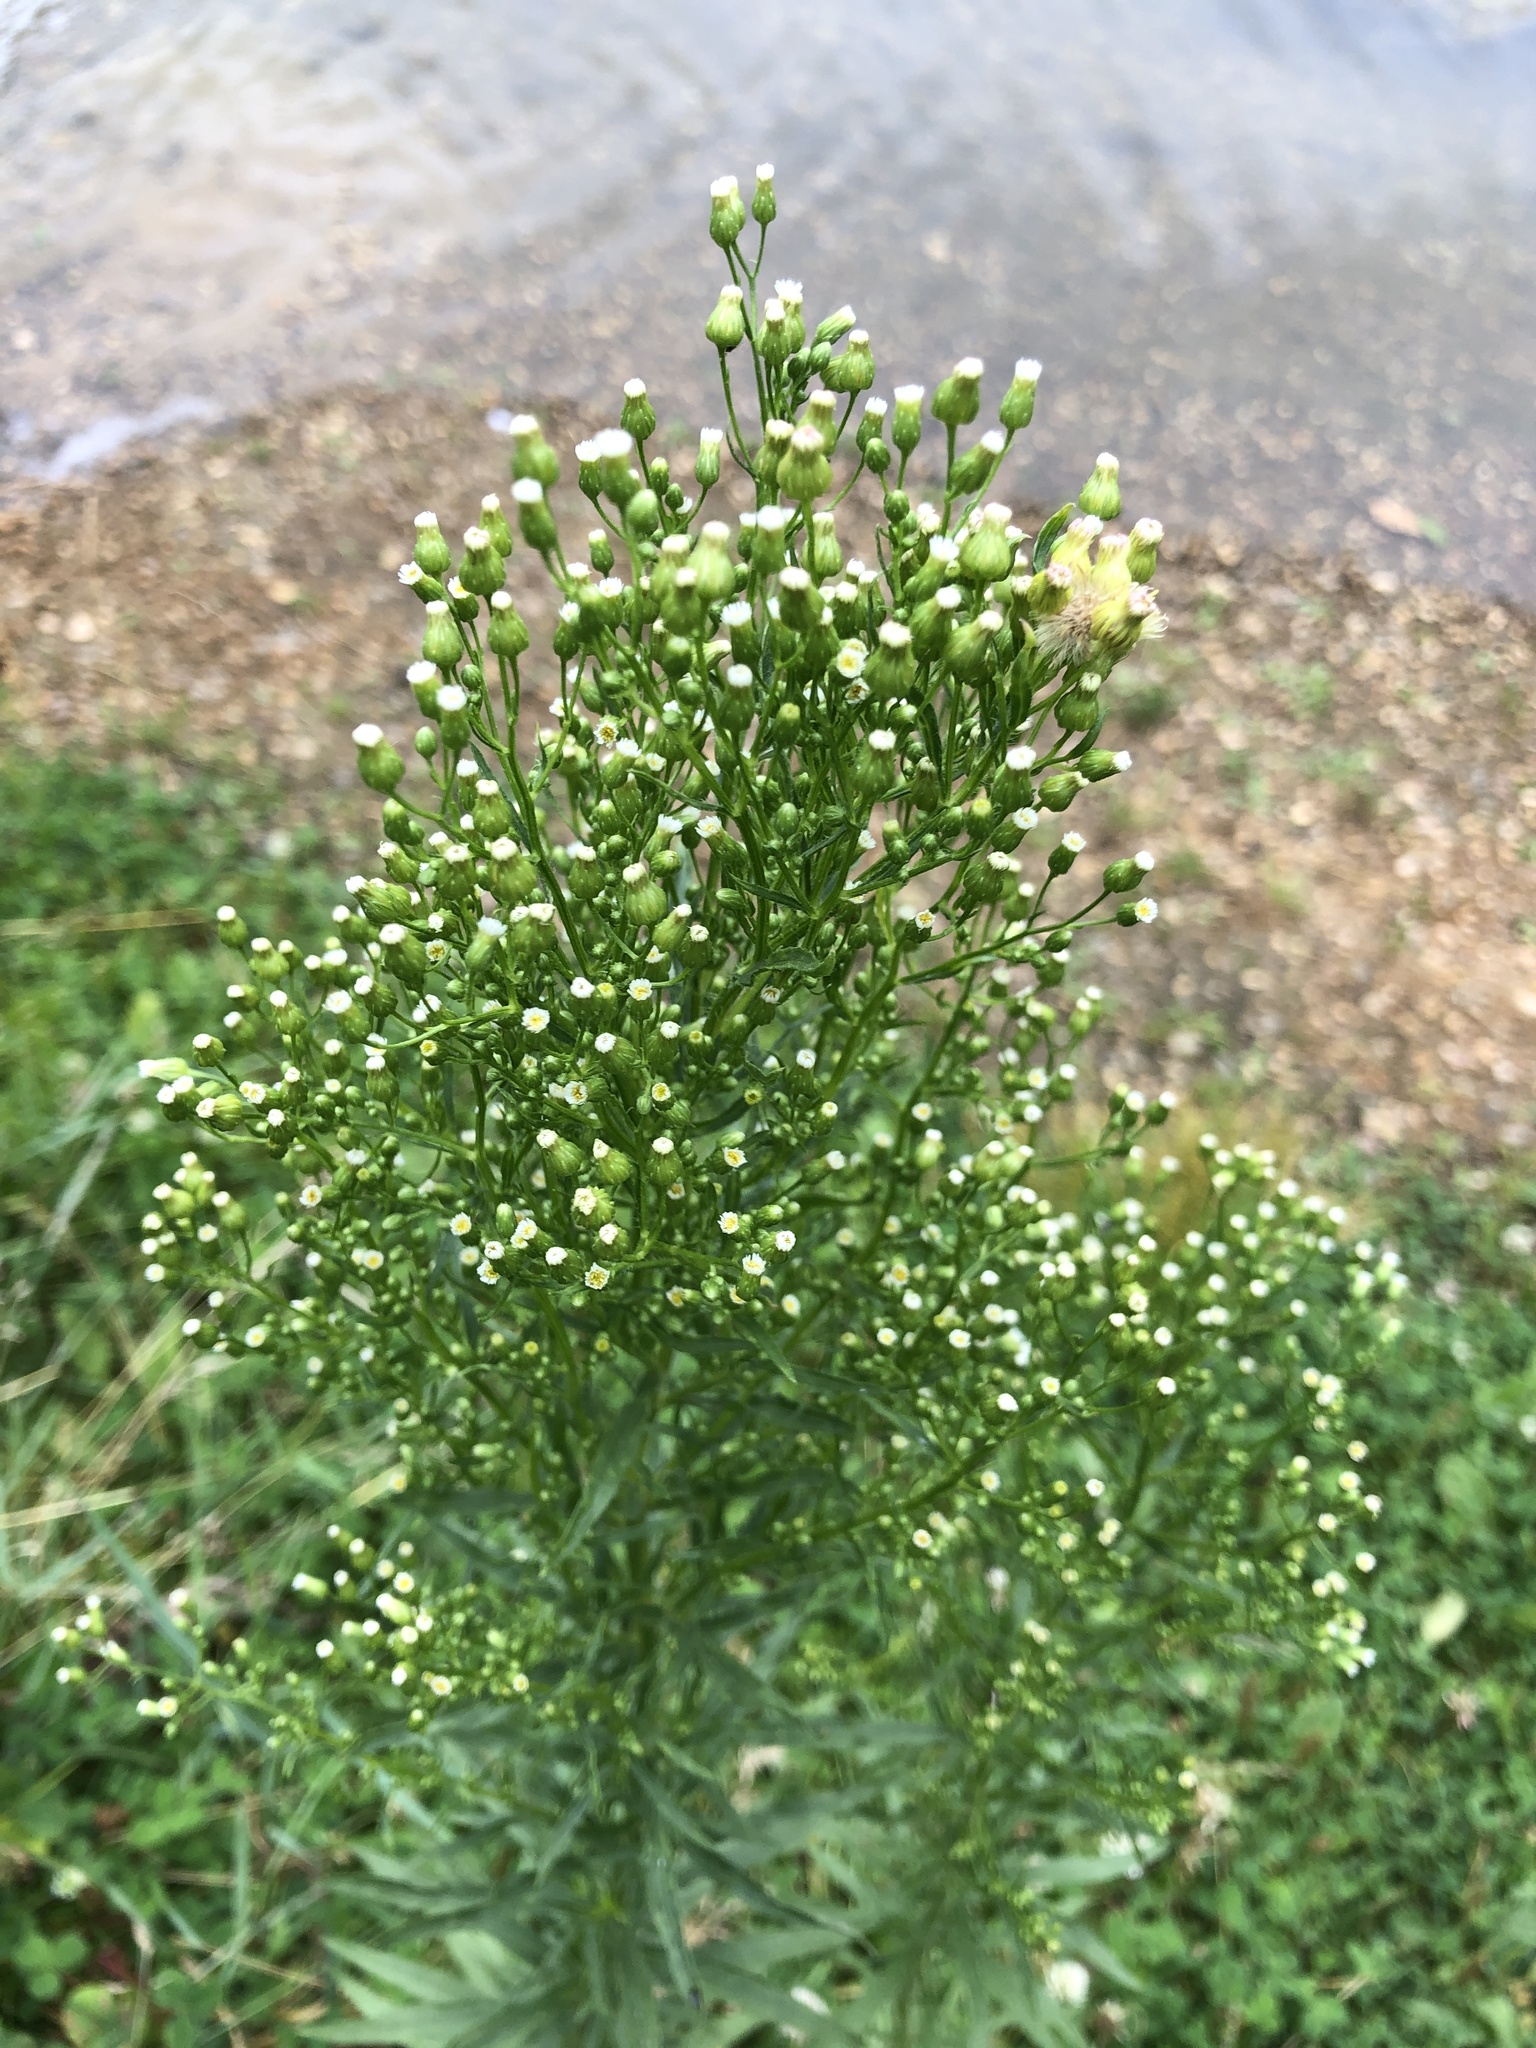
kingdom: Plantae
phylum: Tracheophyta
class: Magnoliopsida
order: Asterales
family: Asteraceae
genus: Erigeron
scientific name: Erigeron canadensis
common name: Canadian fleabane
